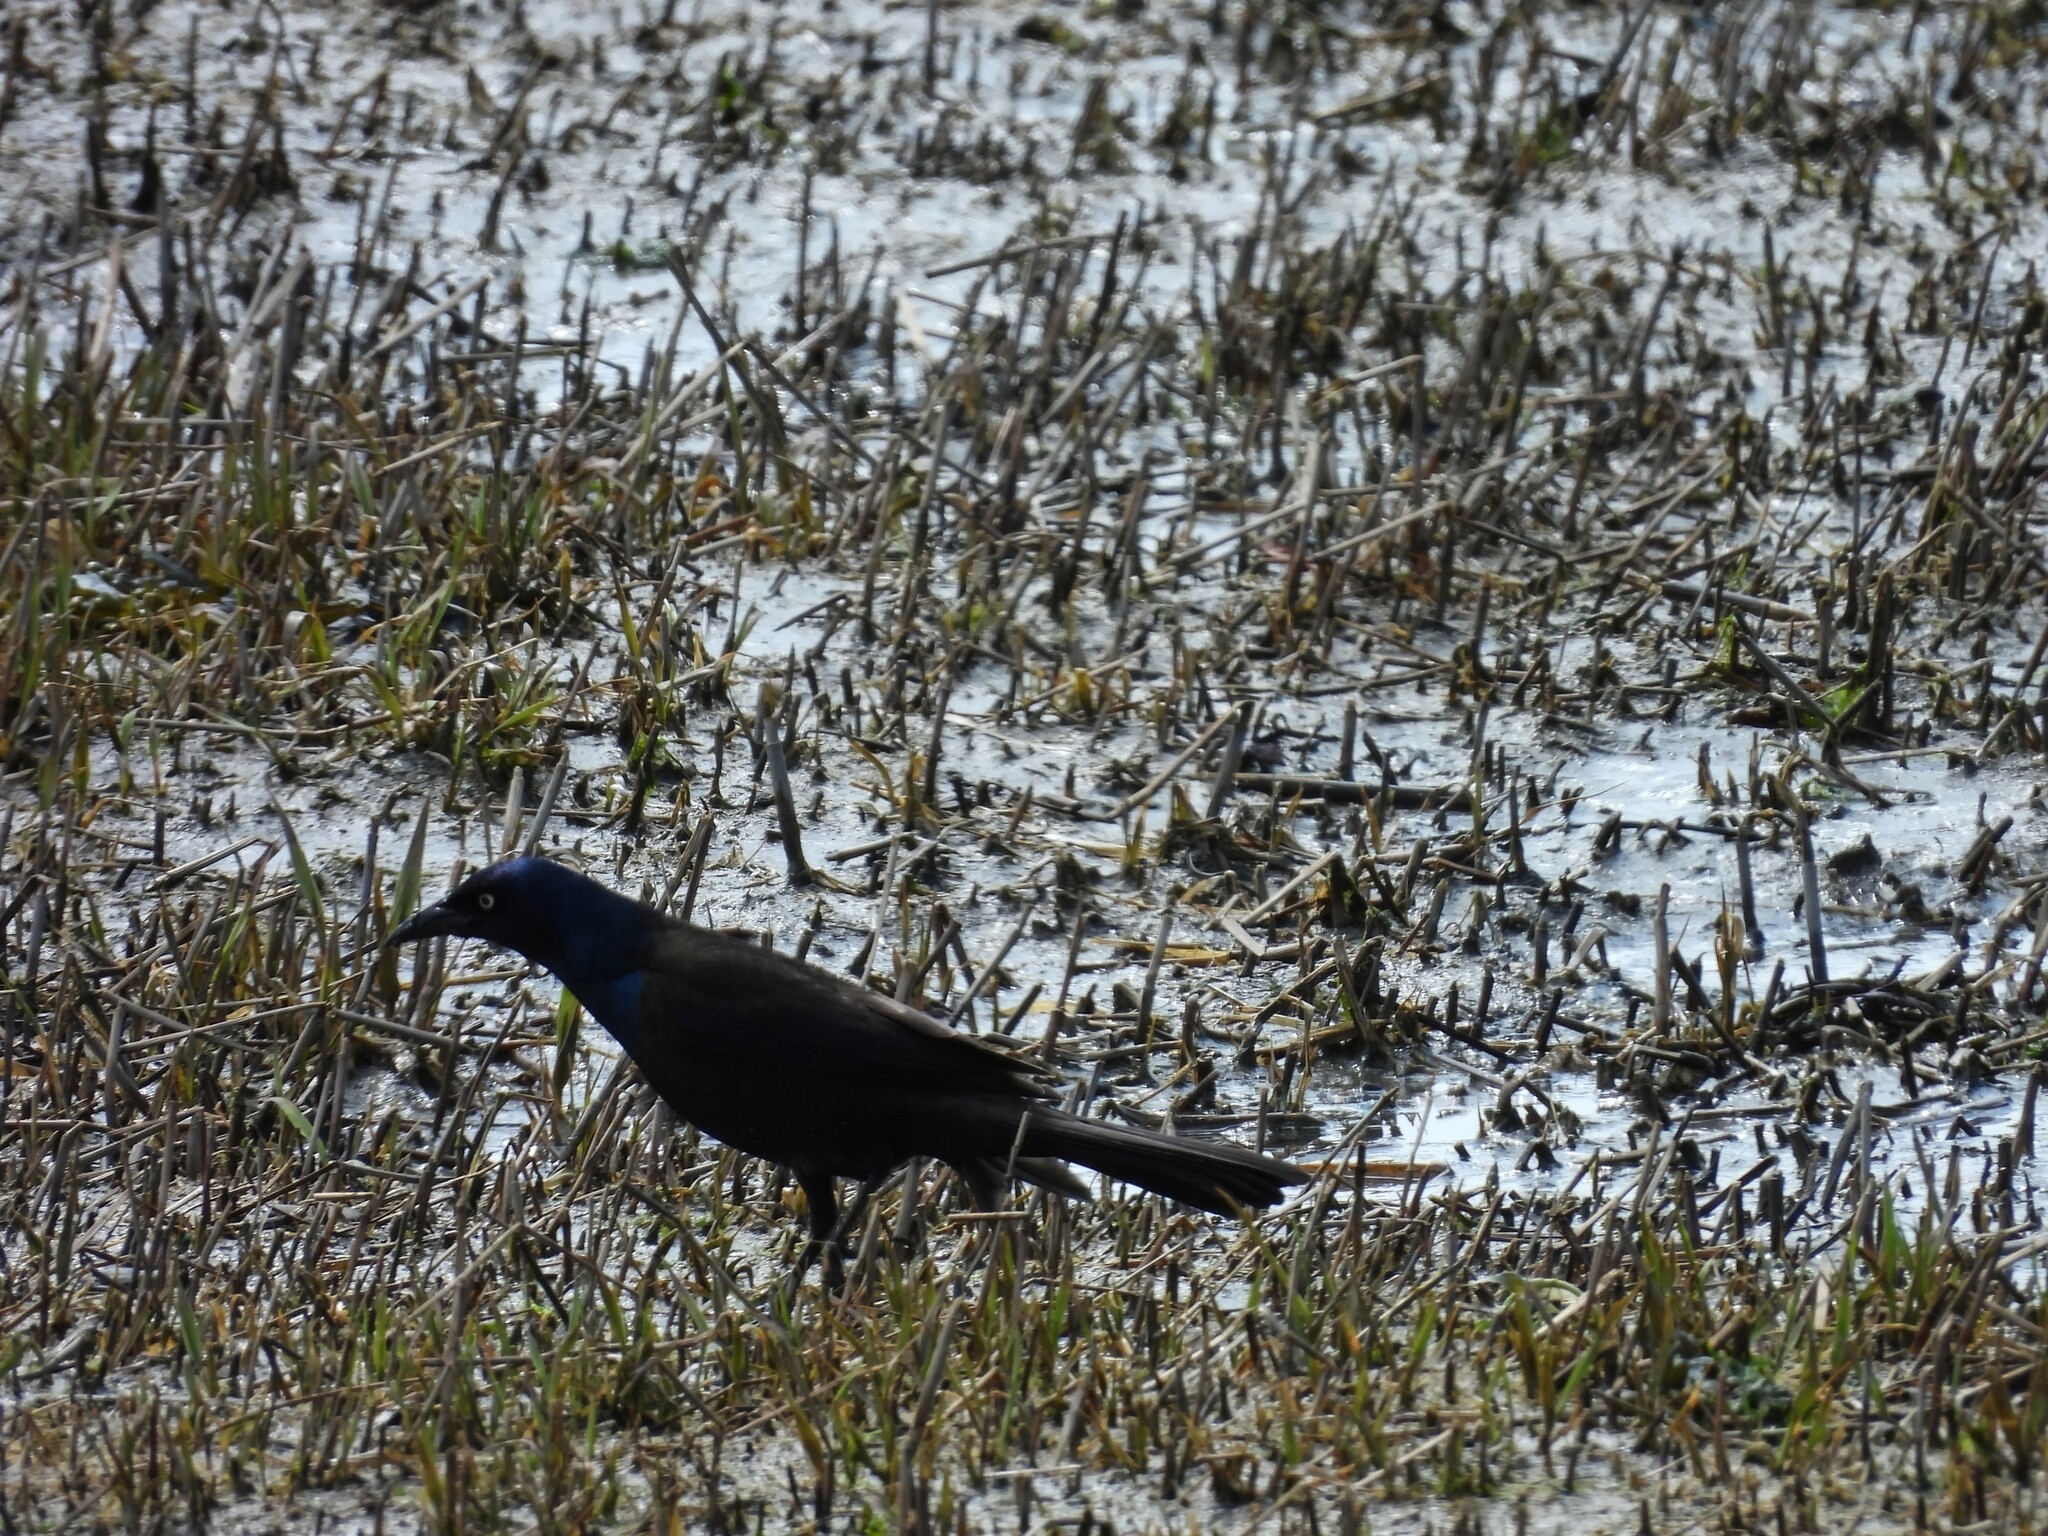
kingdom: Animalia
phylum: Chordata
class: Aves
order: Passeriformes
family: Icteridae
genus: Quiscalus
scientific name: Quiscalus quiscula
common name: Common grackle
